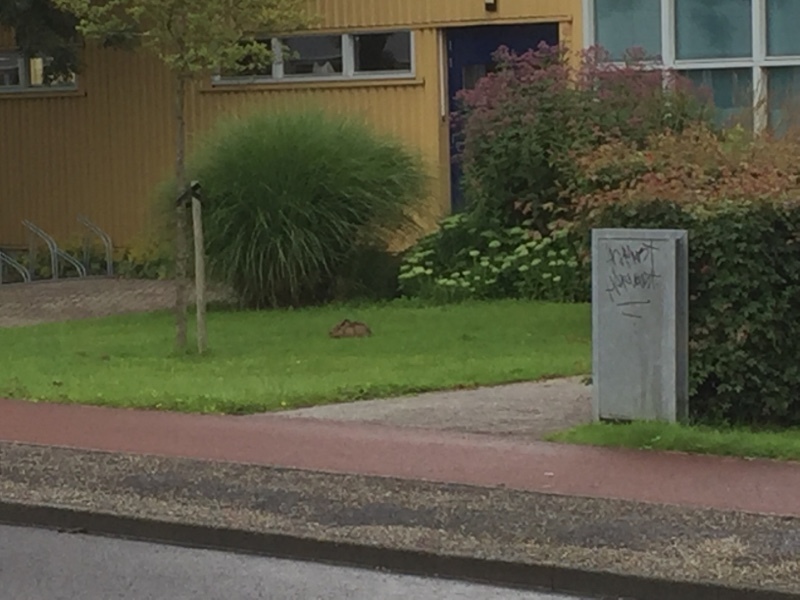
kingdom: Animalia
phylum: Chordata
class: Mammalia
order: Lagomorpha
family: Leporidae
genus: Lepus
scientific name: Lepus europaeus
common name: European hare
